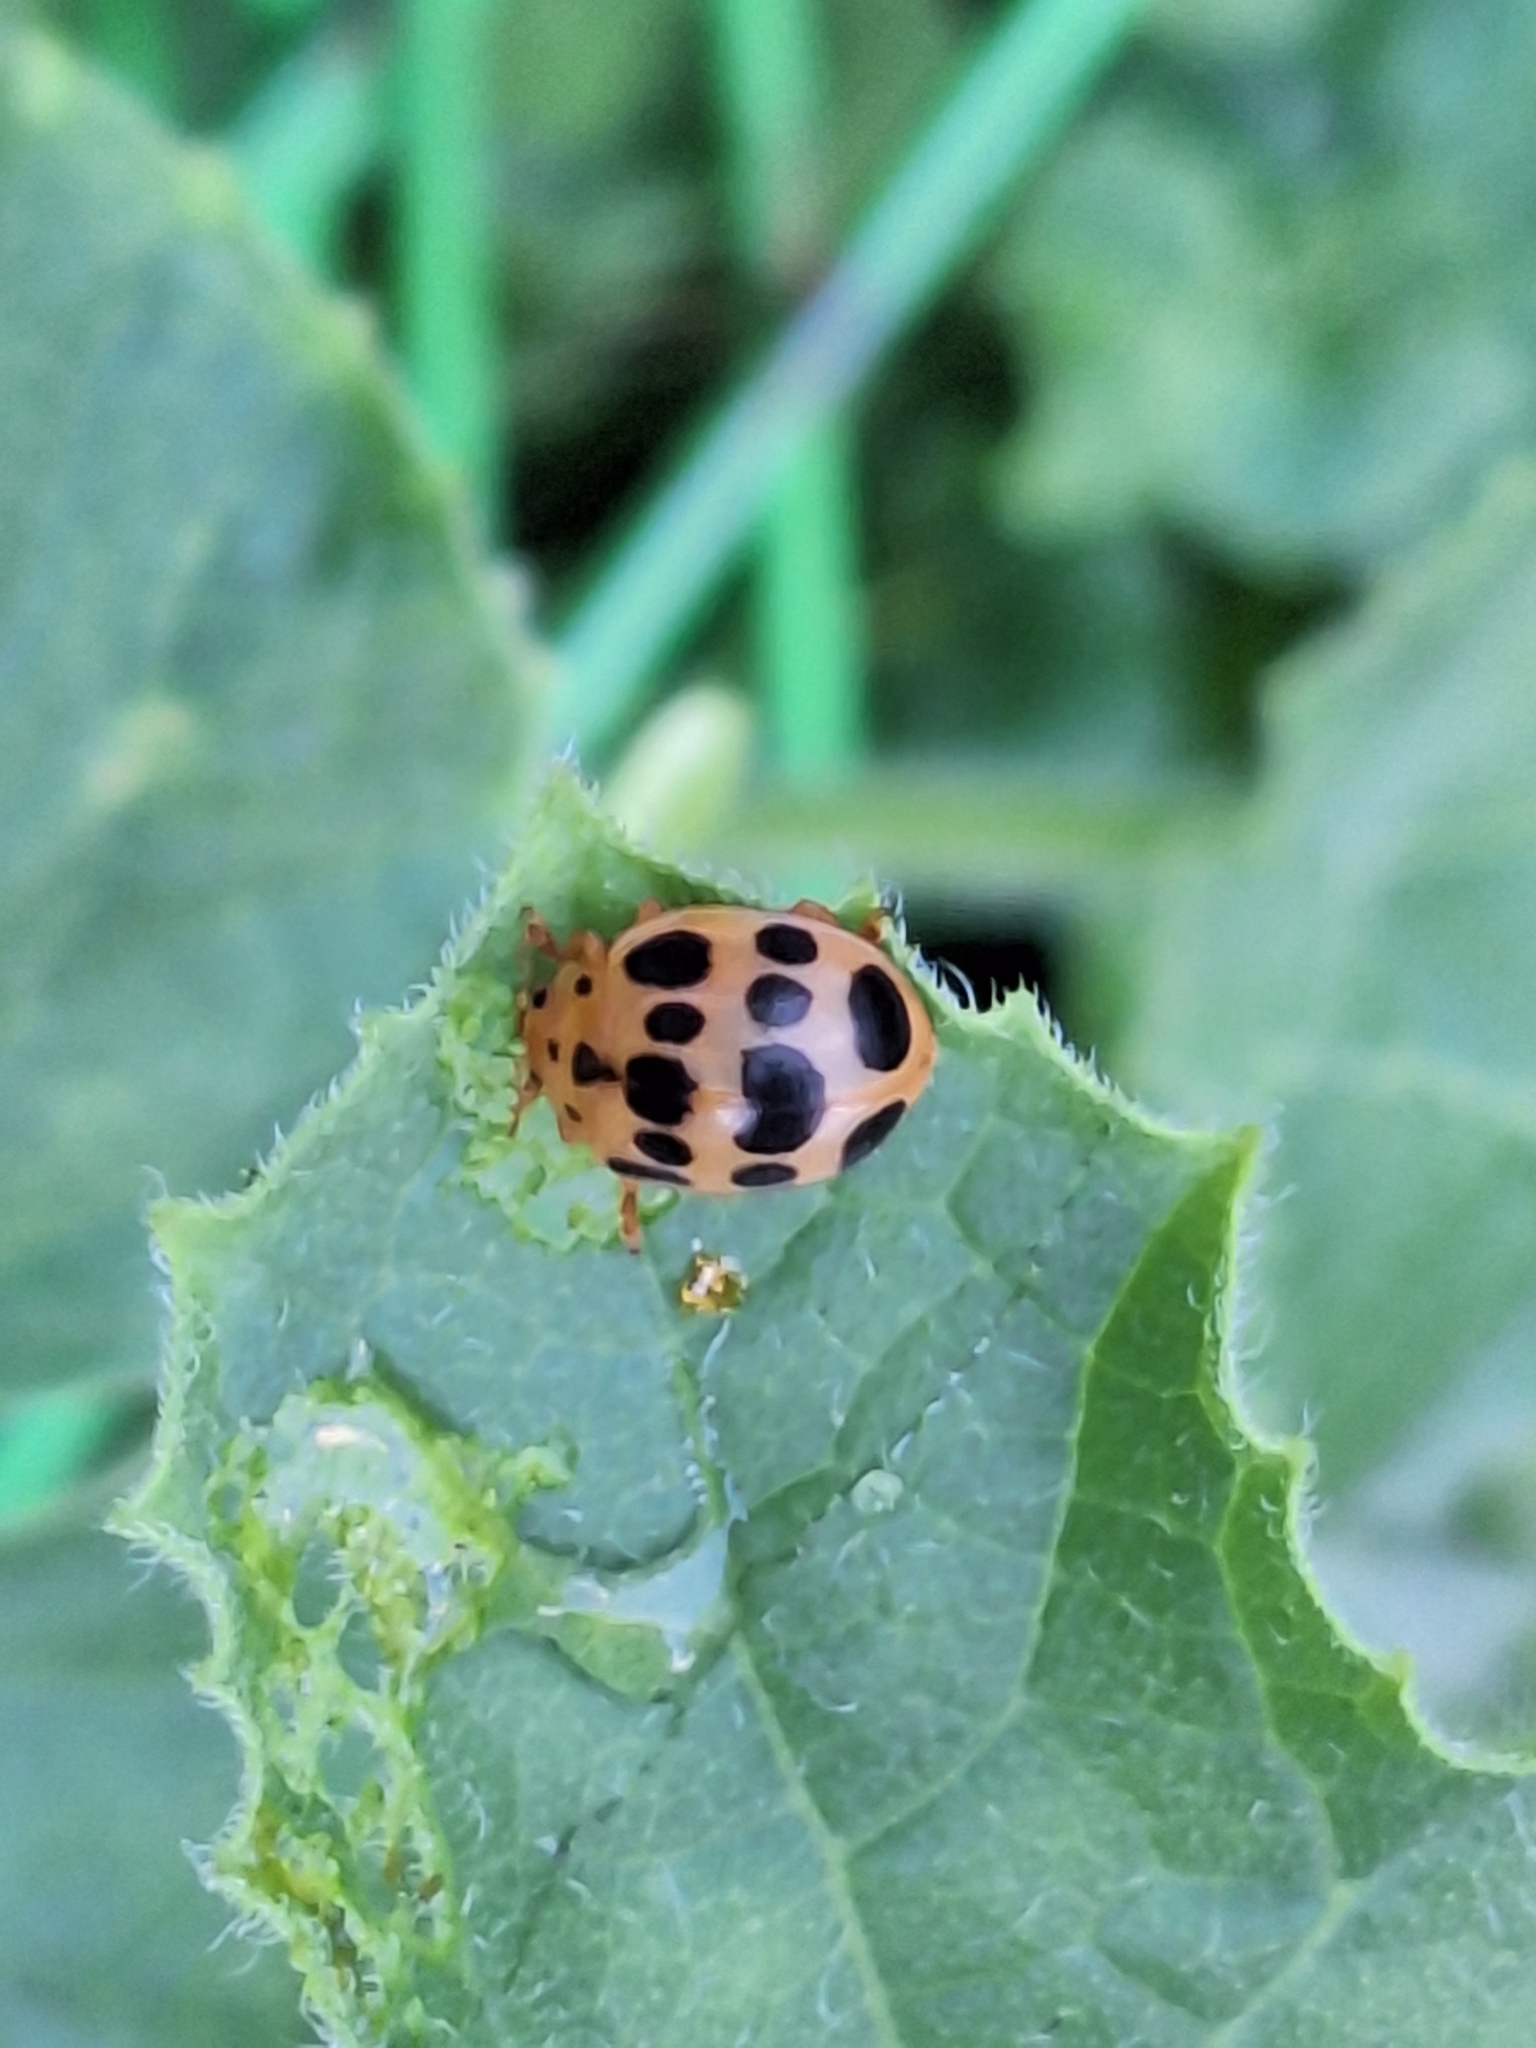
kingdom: Animalia
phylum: Arthropoda
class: Insecta
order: Coleoptera
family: Coccinellidae
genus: Epilachna
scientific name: Epilachna borealis
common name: Squash beetle
